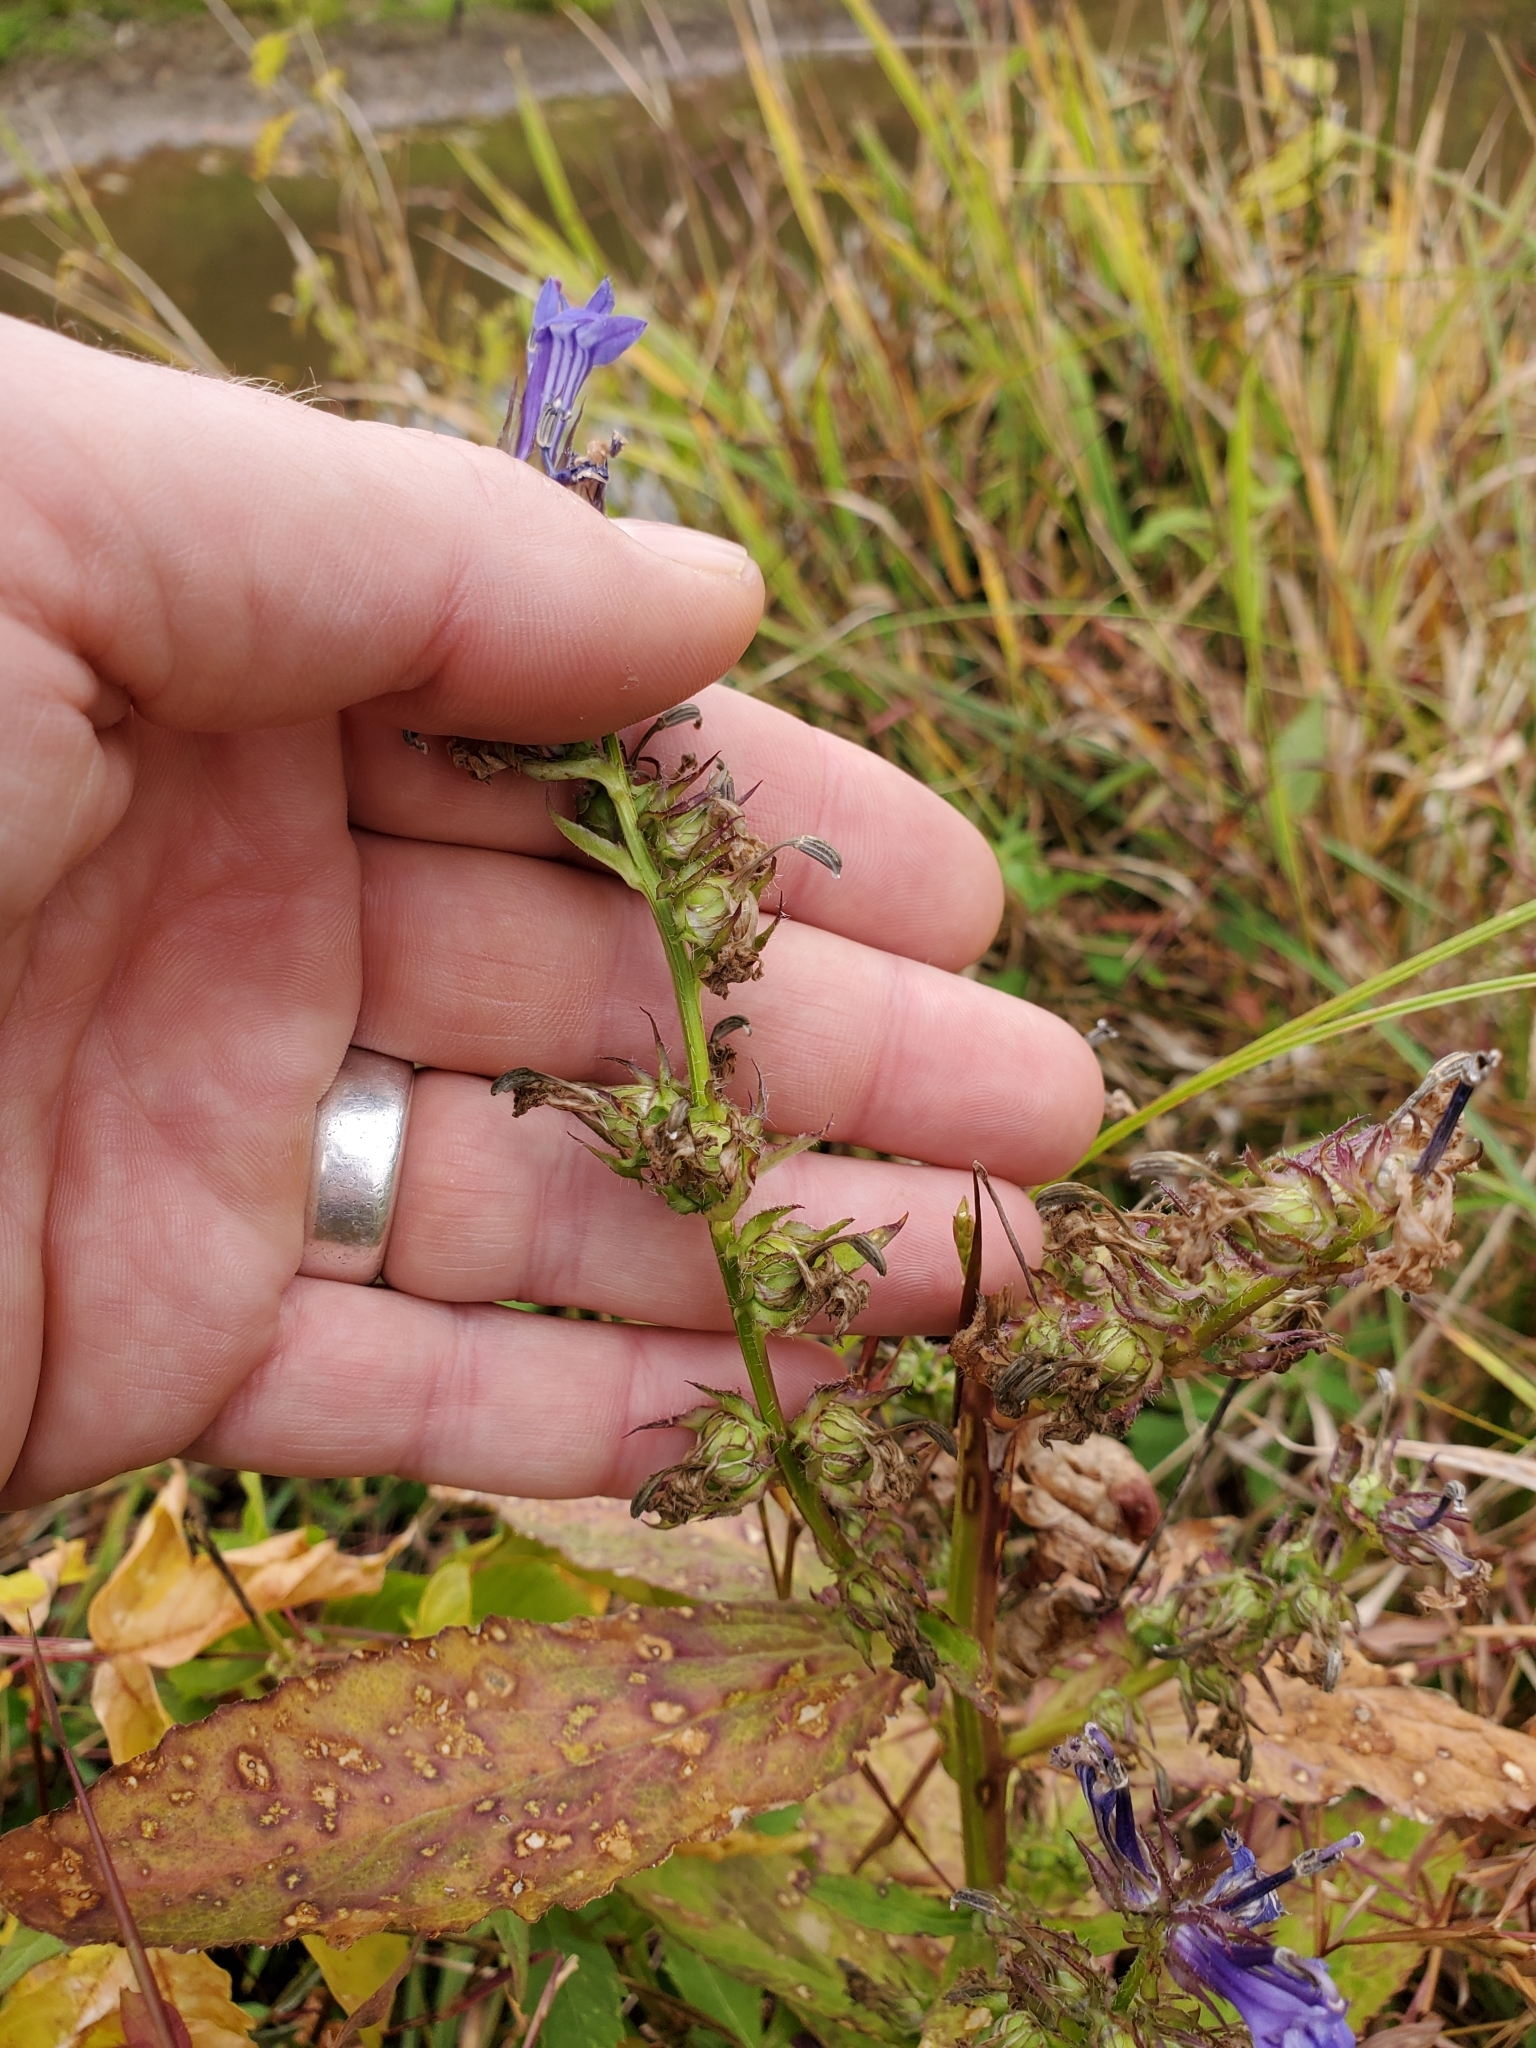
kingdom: Plantae
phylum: Tracheophyta
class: Magnoliopsida
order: Asterales
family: Campanulaceae
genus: Lobelia
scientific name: Lobelia siphilitica
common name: Great lobelia
